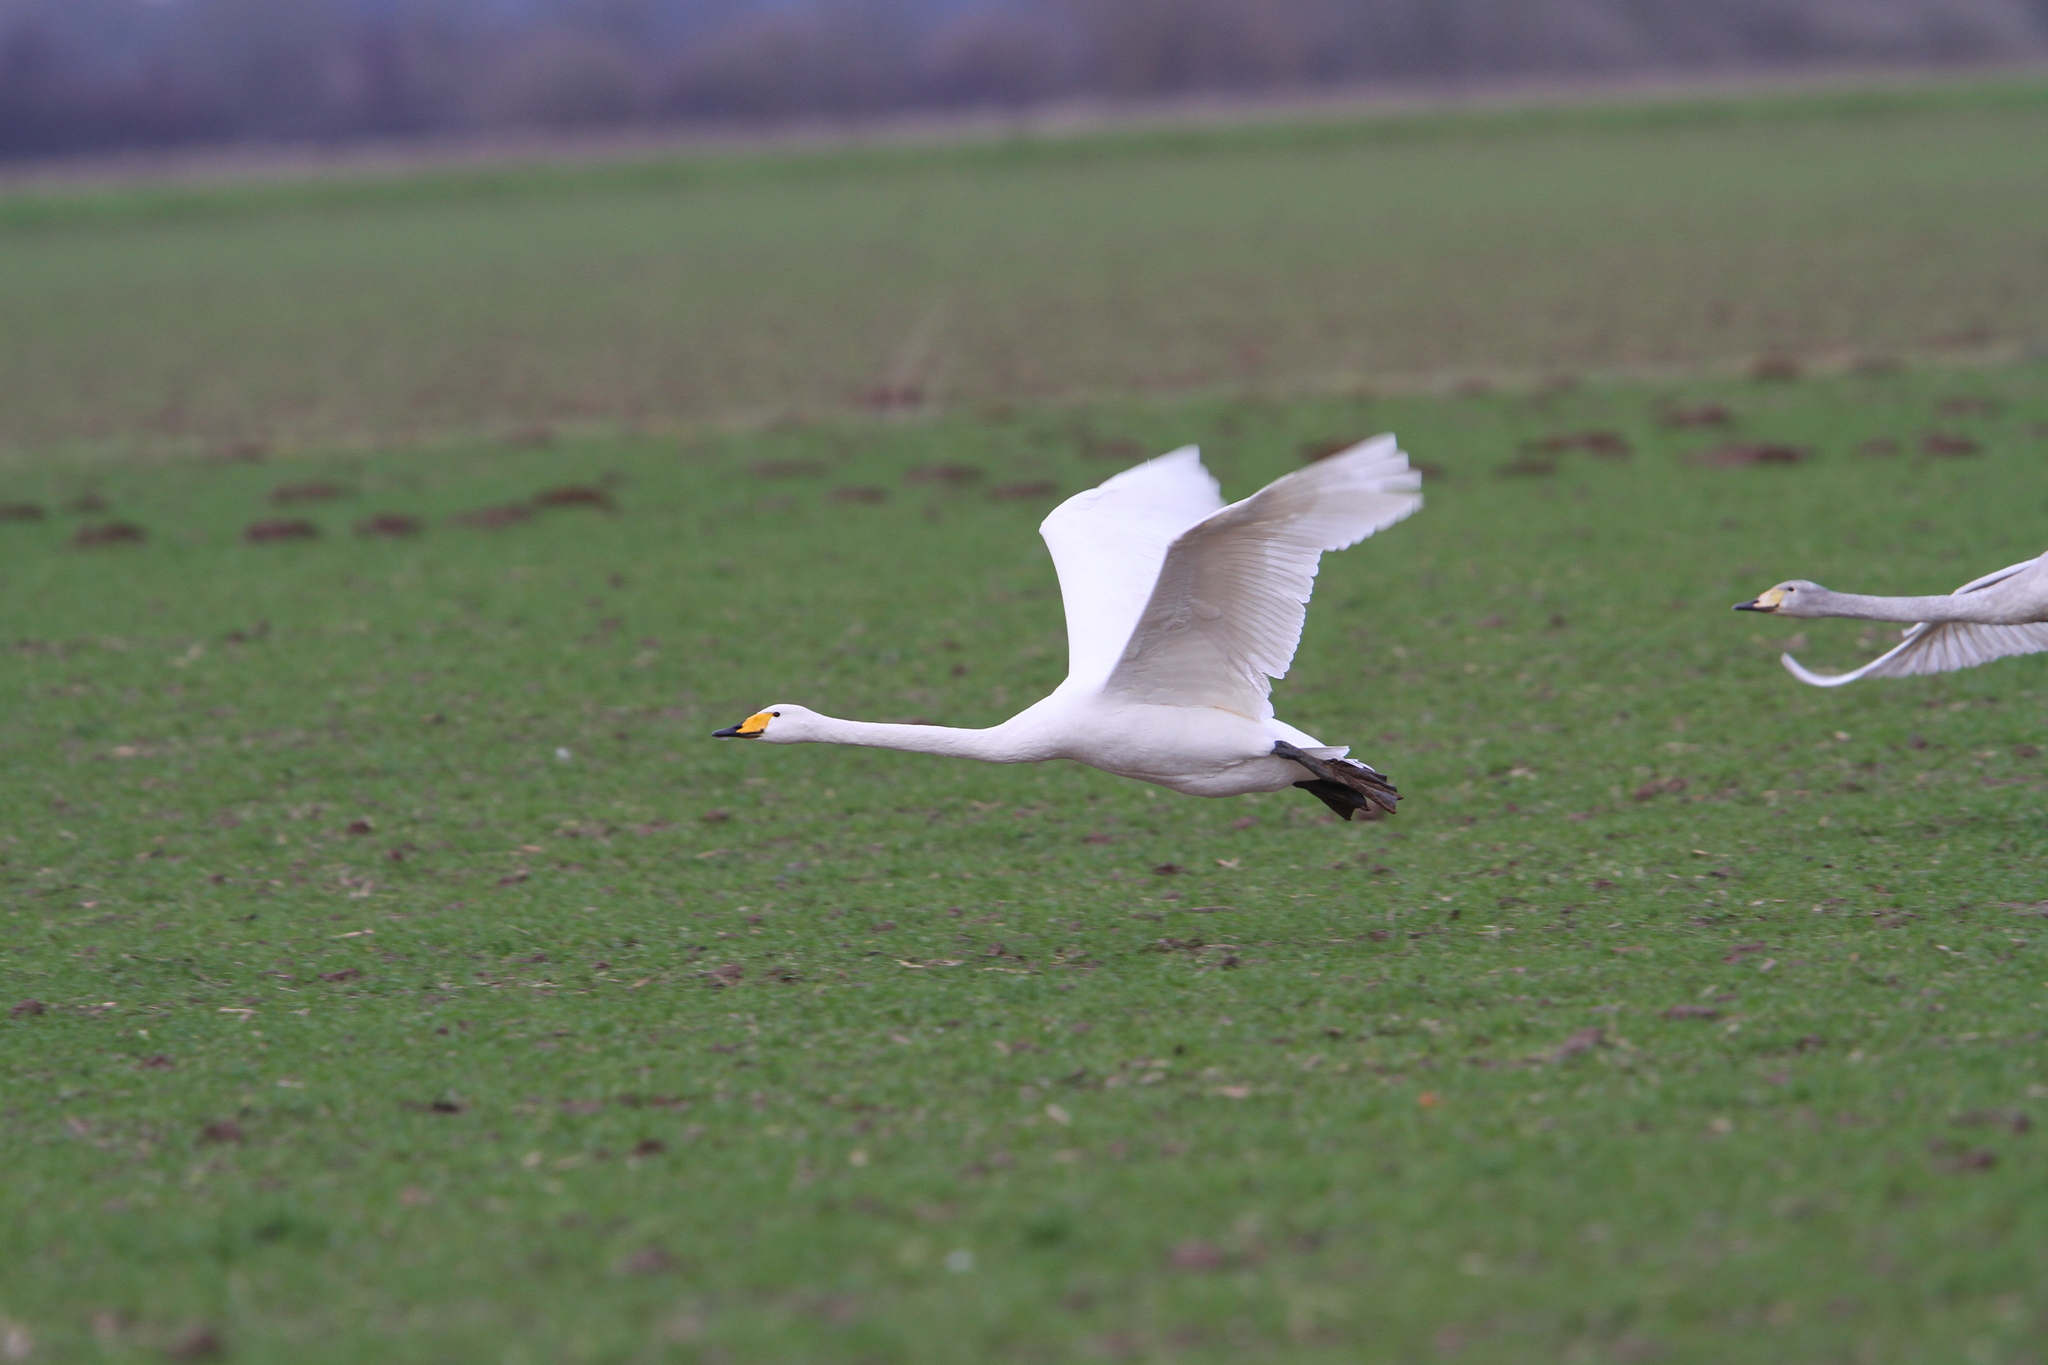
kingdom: Animalia
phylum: Chordata
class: Aves
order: Anseriformes
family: Anatidae
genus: Cygnus
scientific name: Cygnus cygnus
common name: Whooper swan
